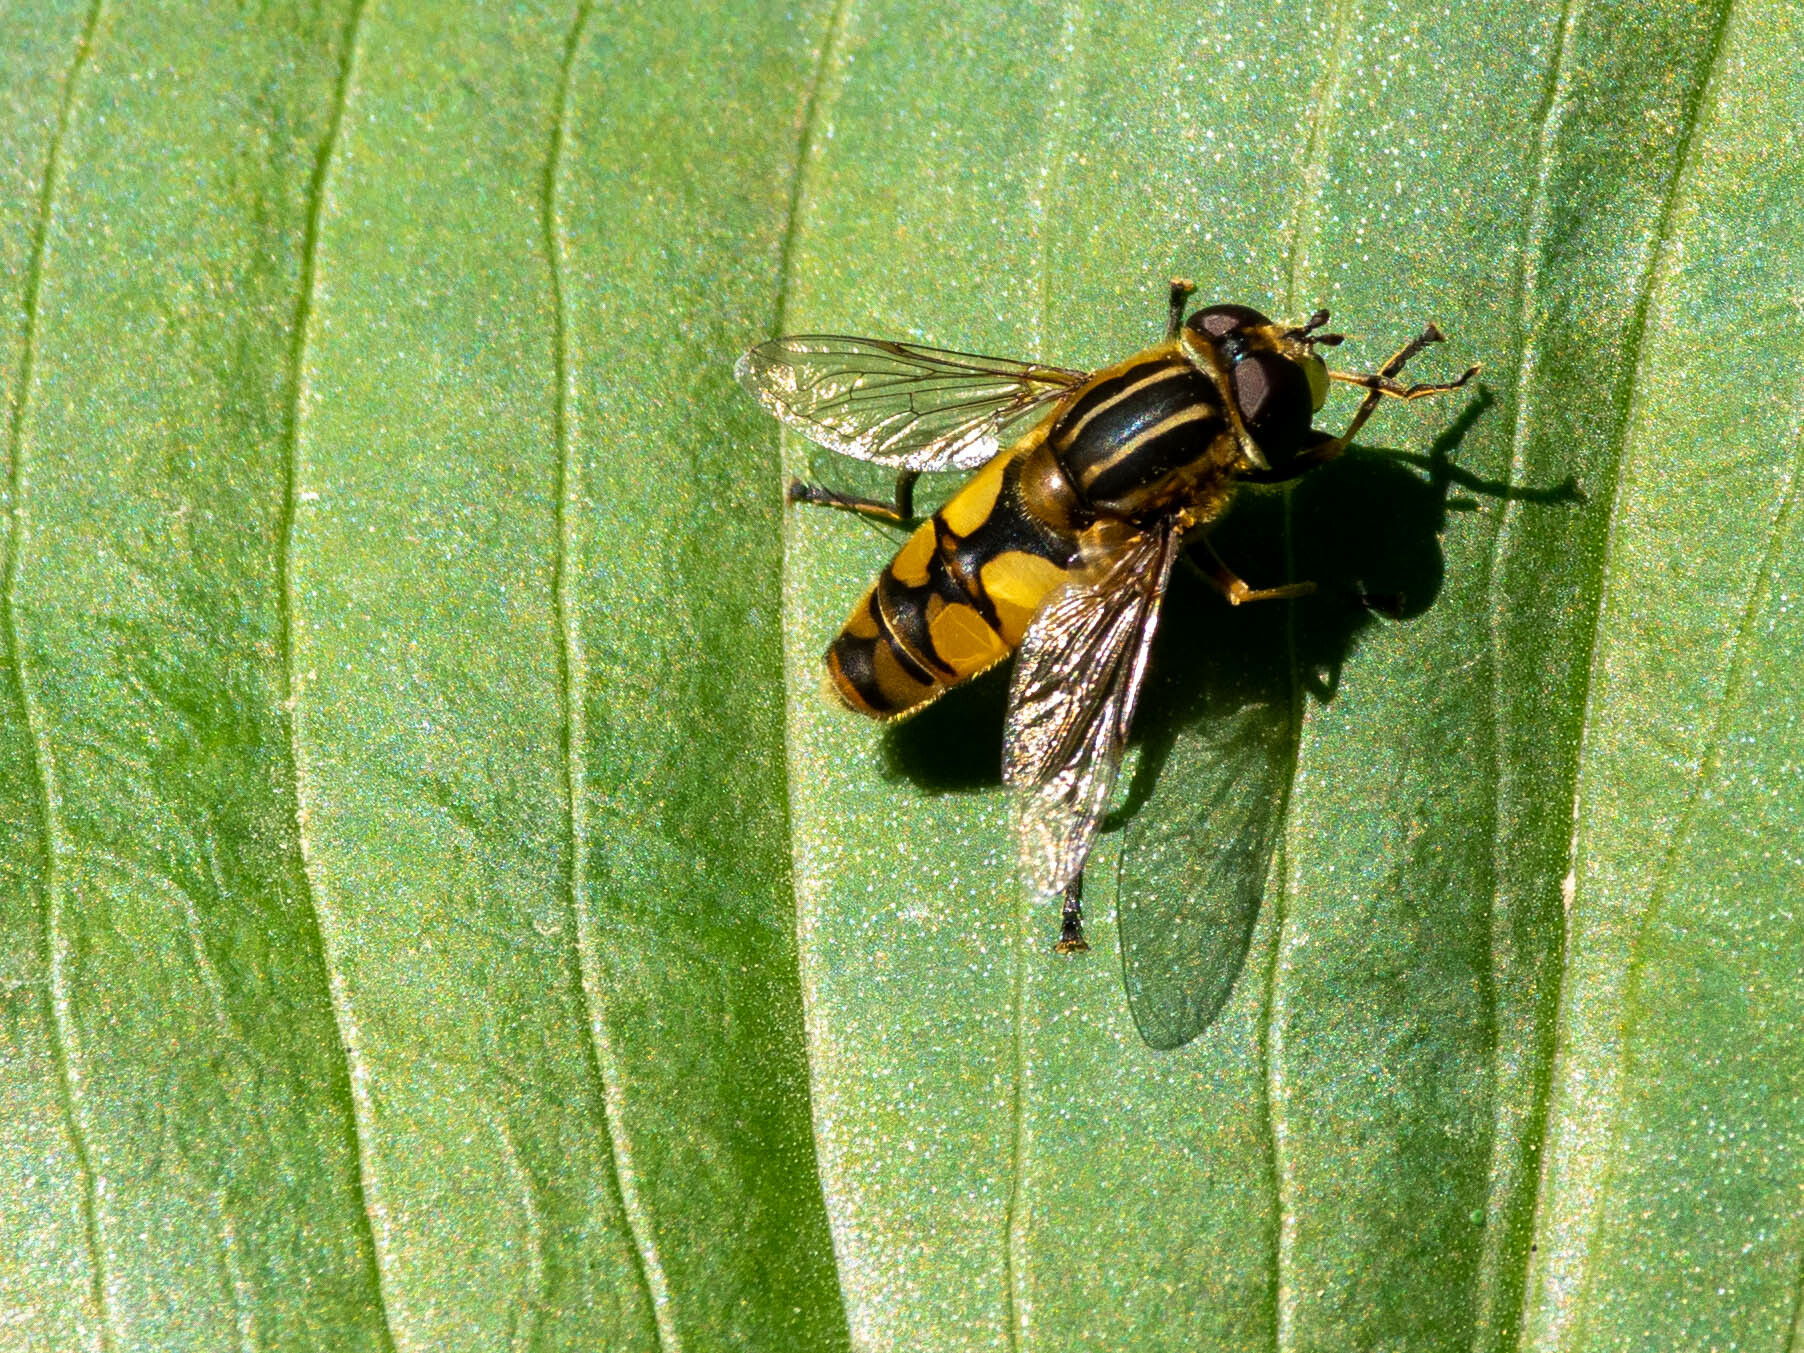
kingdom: Animalia
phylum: Arthropoda
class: Insecta
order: Diptera
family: Syrphidae
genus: Helophilus
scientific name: Helophilus hybridus
